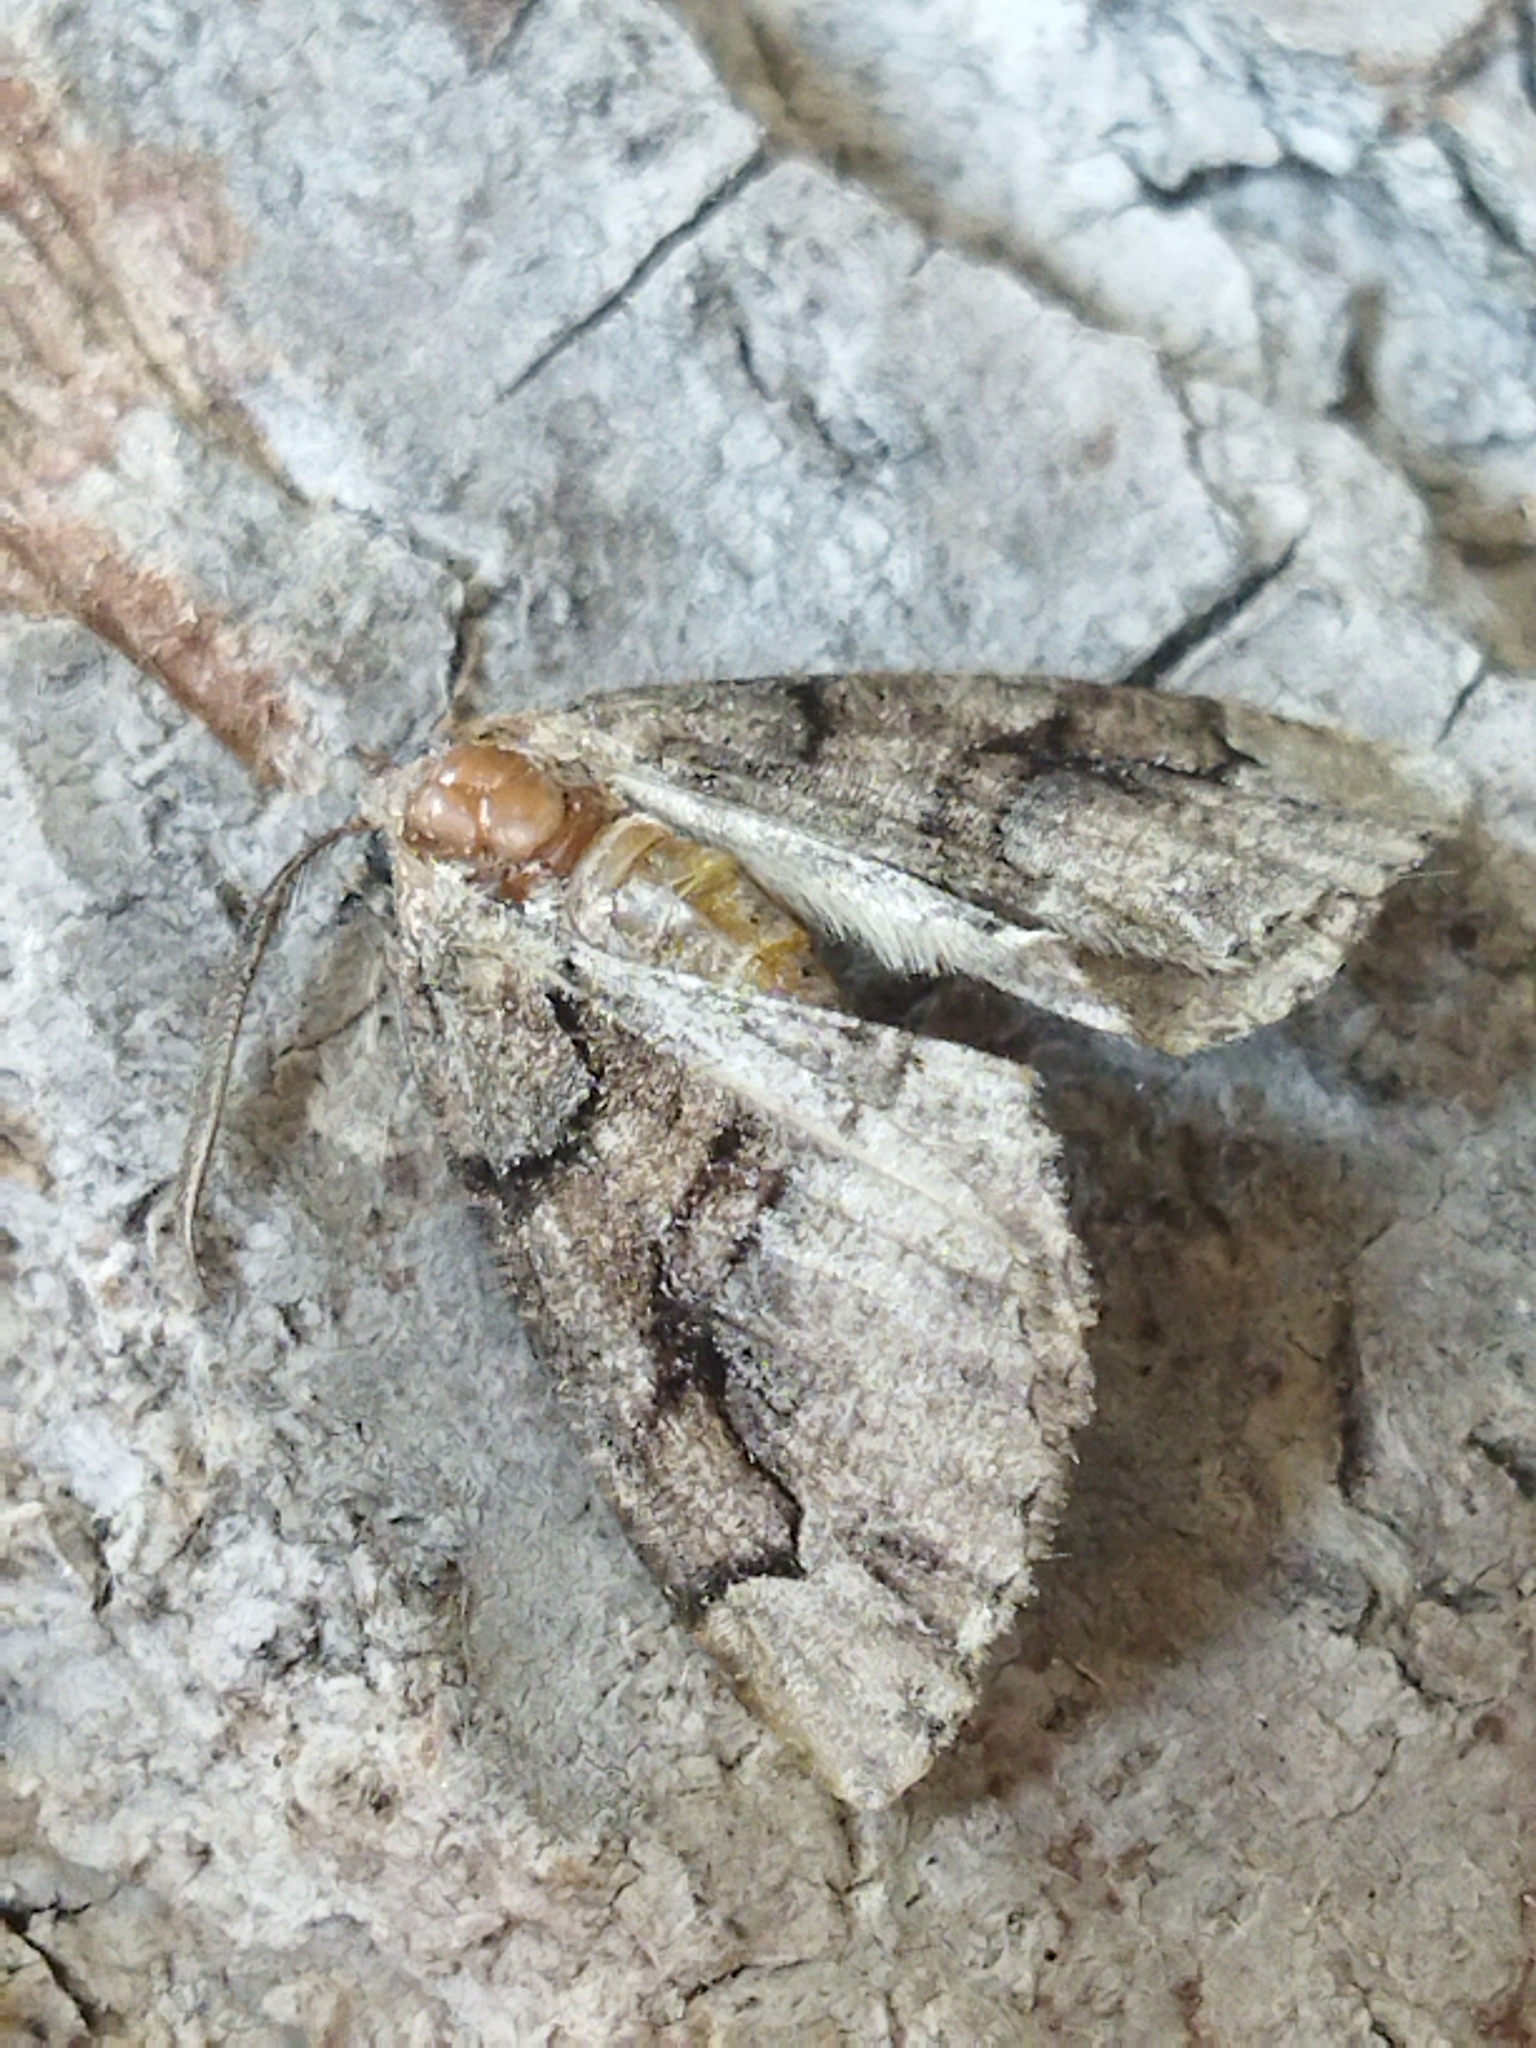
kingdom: Animalia
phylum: Arthropoda
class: Insecta
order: Lepidoptera
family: Geometridae
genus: Asovia
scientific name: Asovia maeoticaria
